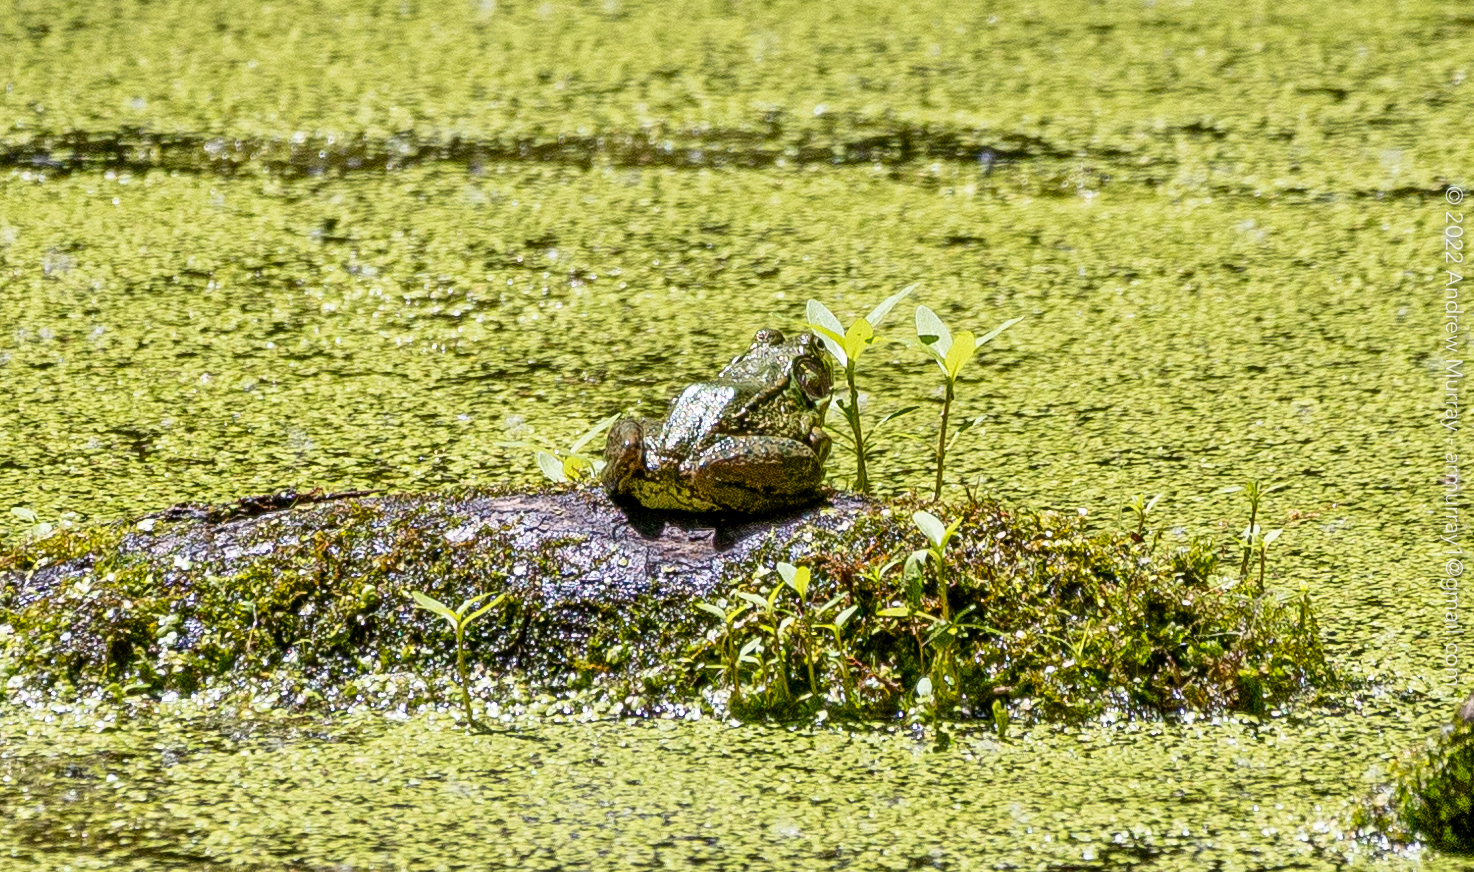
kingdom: Animalia
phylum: Chordata
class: Amphibia
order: Anura
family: Ranidae
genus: Lithobates
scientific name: Lithobates clamitans
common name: Green frog
